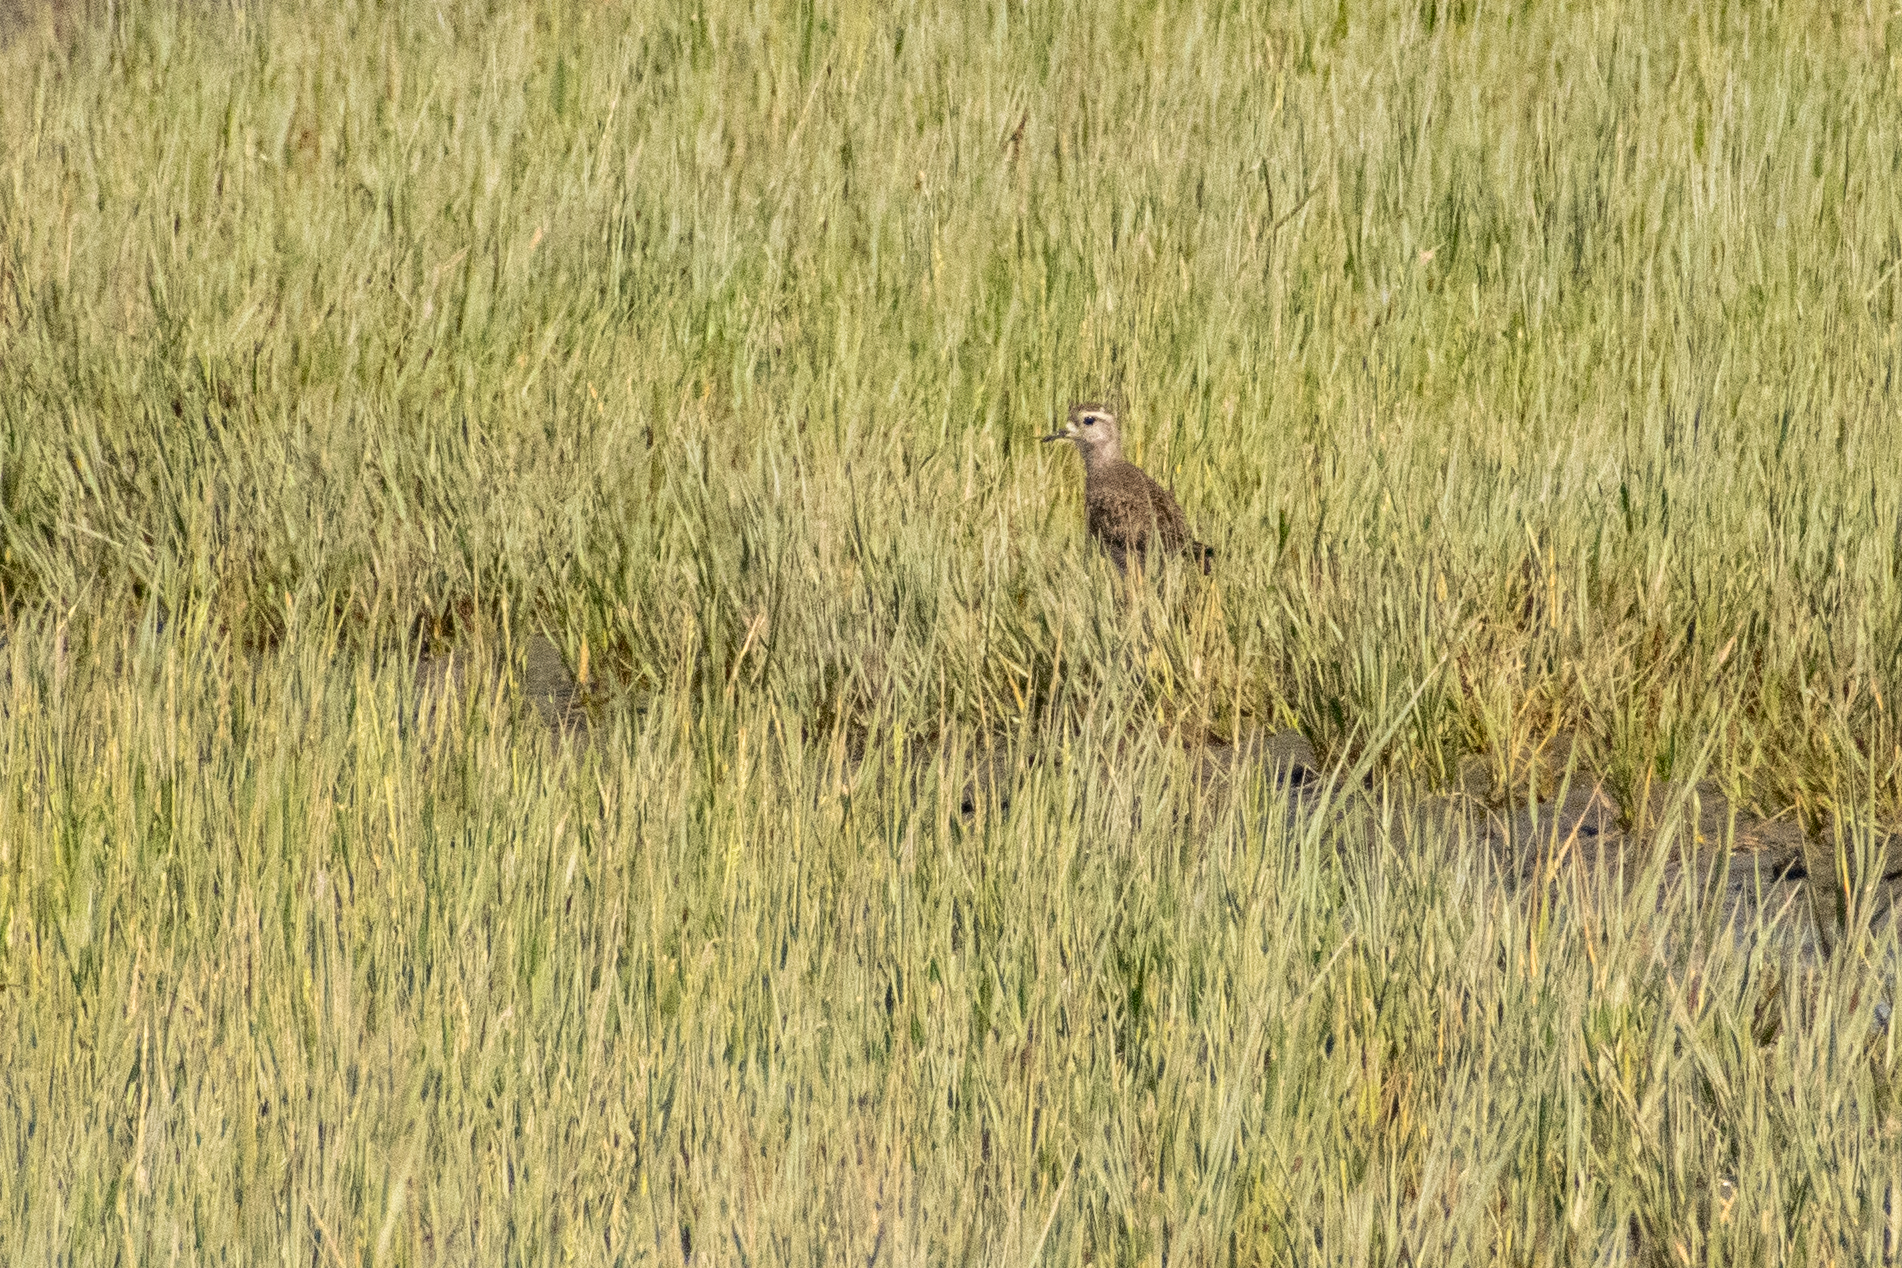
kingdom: Animalia
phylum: Chordata
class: Aves
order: Charadriiformes
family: Charadriidae
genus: Pluvialis
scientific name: Pluvialis dominica
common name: American golden plover
